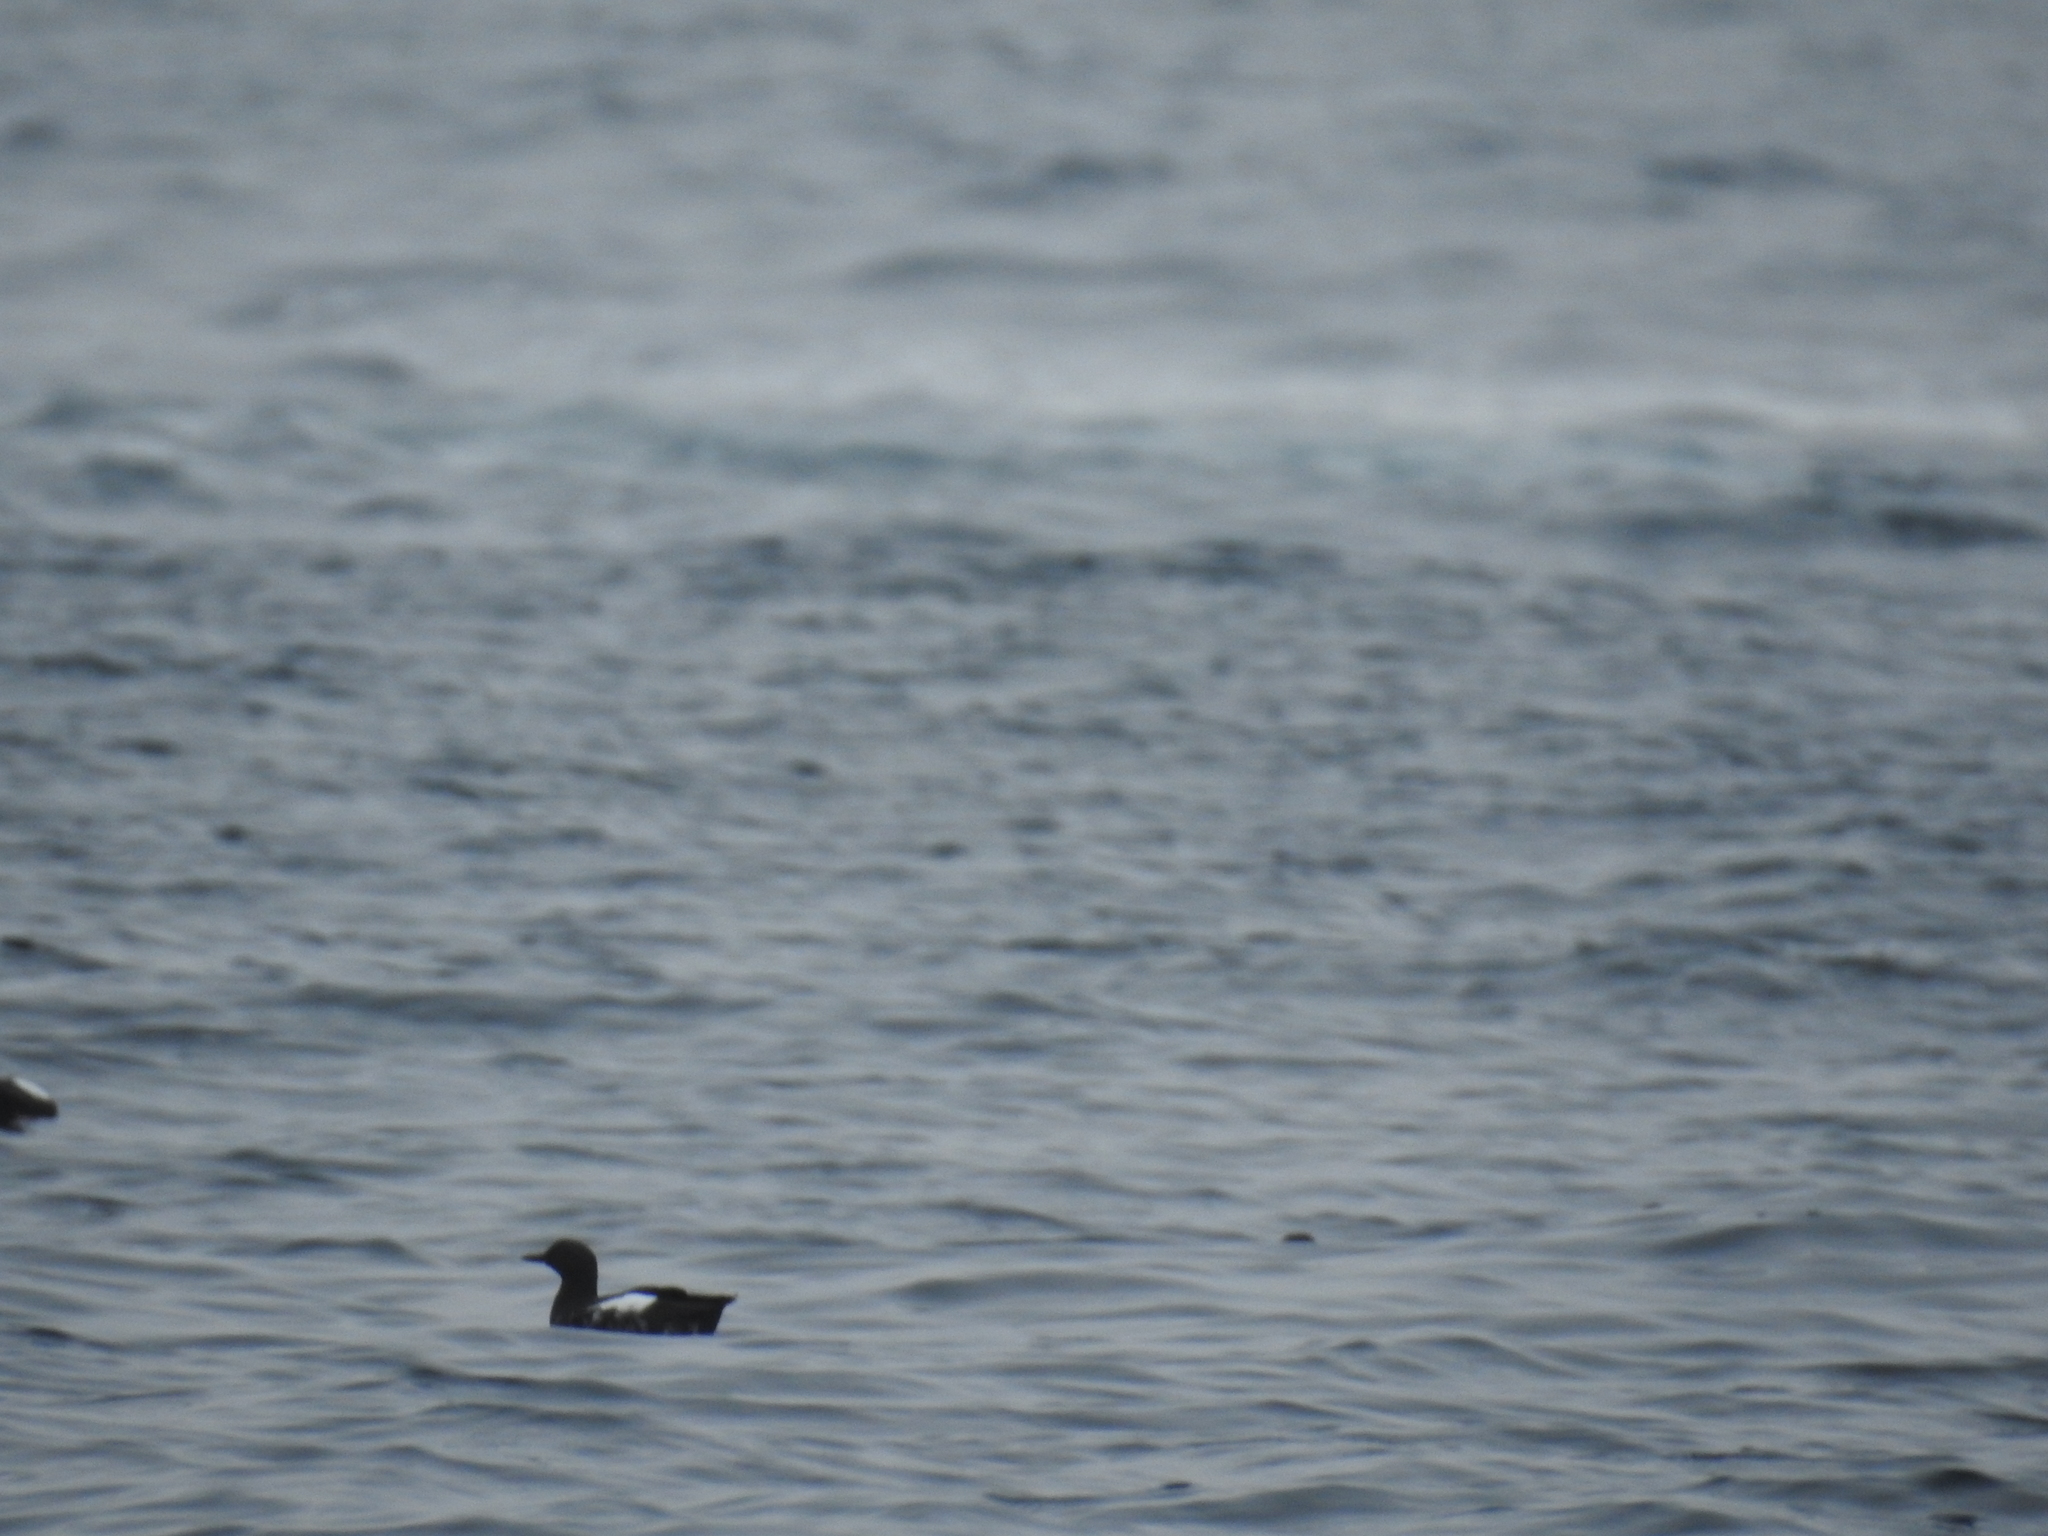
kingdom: Animalia
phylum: Chordata
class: Aves
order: Charadriiformes
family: Alcidae
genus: Cepphus
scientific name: Cepphus columba
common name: Pigeon guillemot
